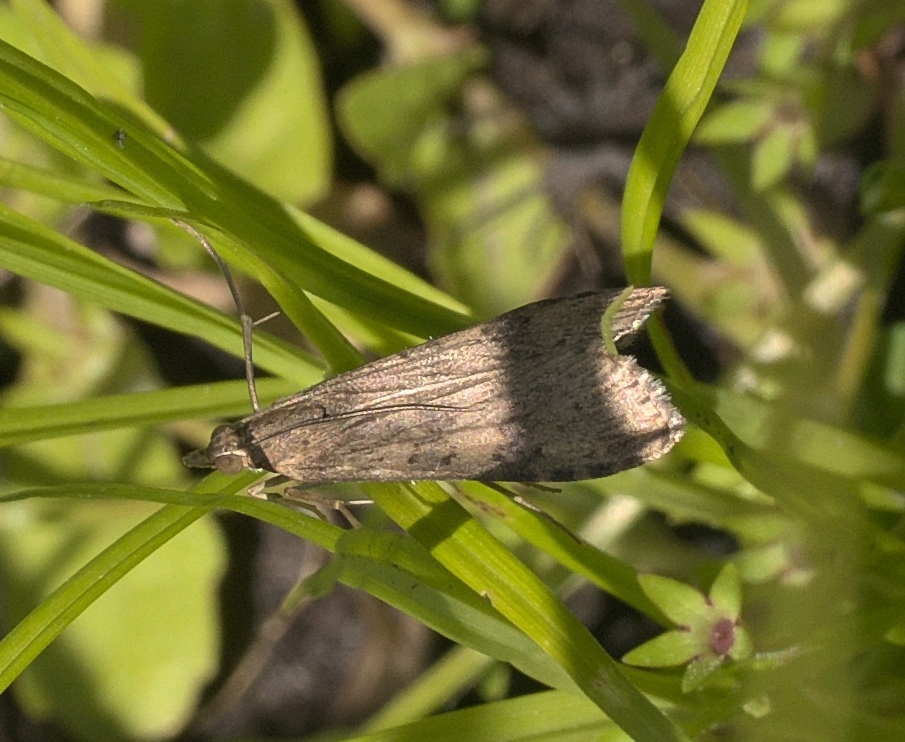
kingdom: Animalia
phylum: Arthropoda
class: Insecta
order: Lepidoptera
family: Crambidae
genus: Nomophila
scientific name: Nomophila nearctica
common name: American rush veneer
